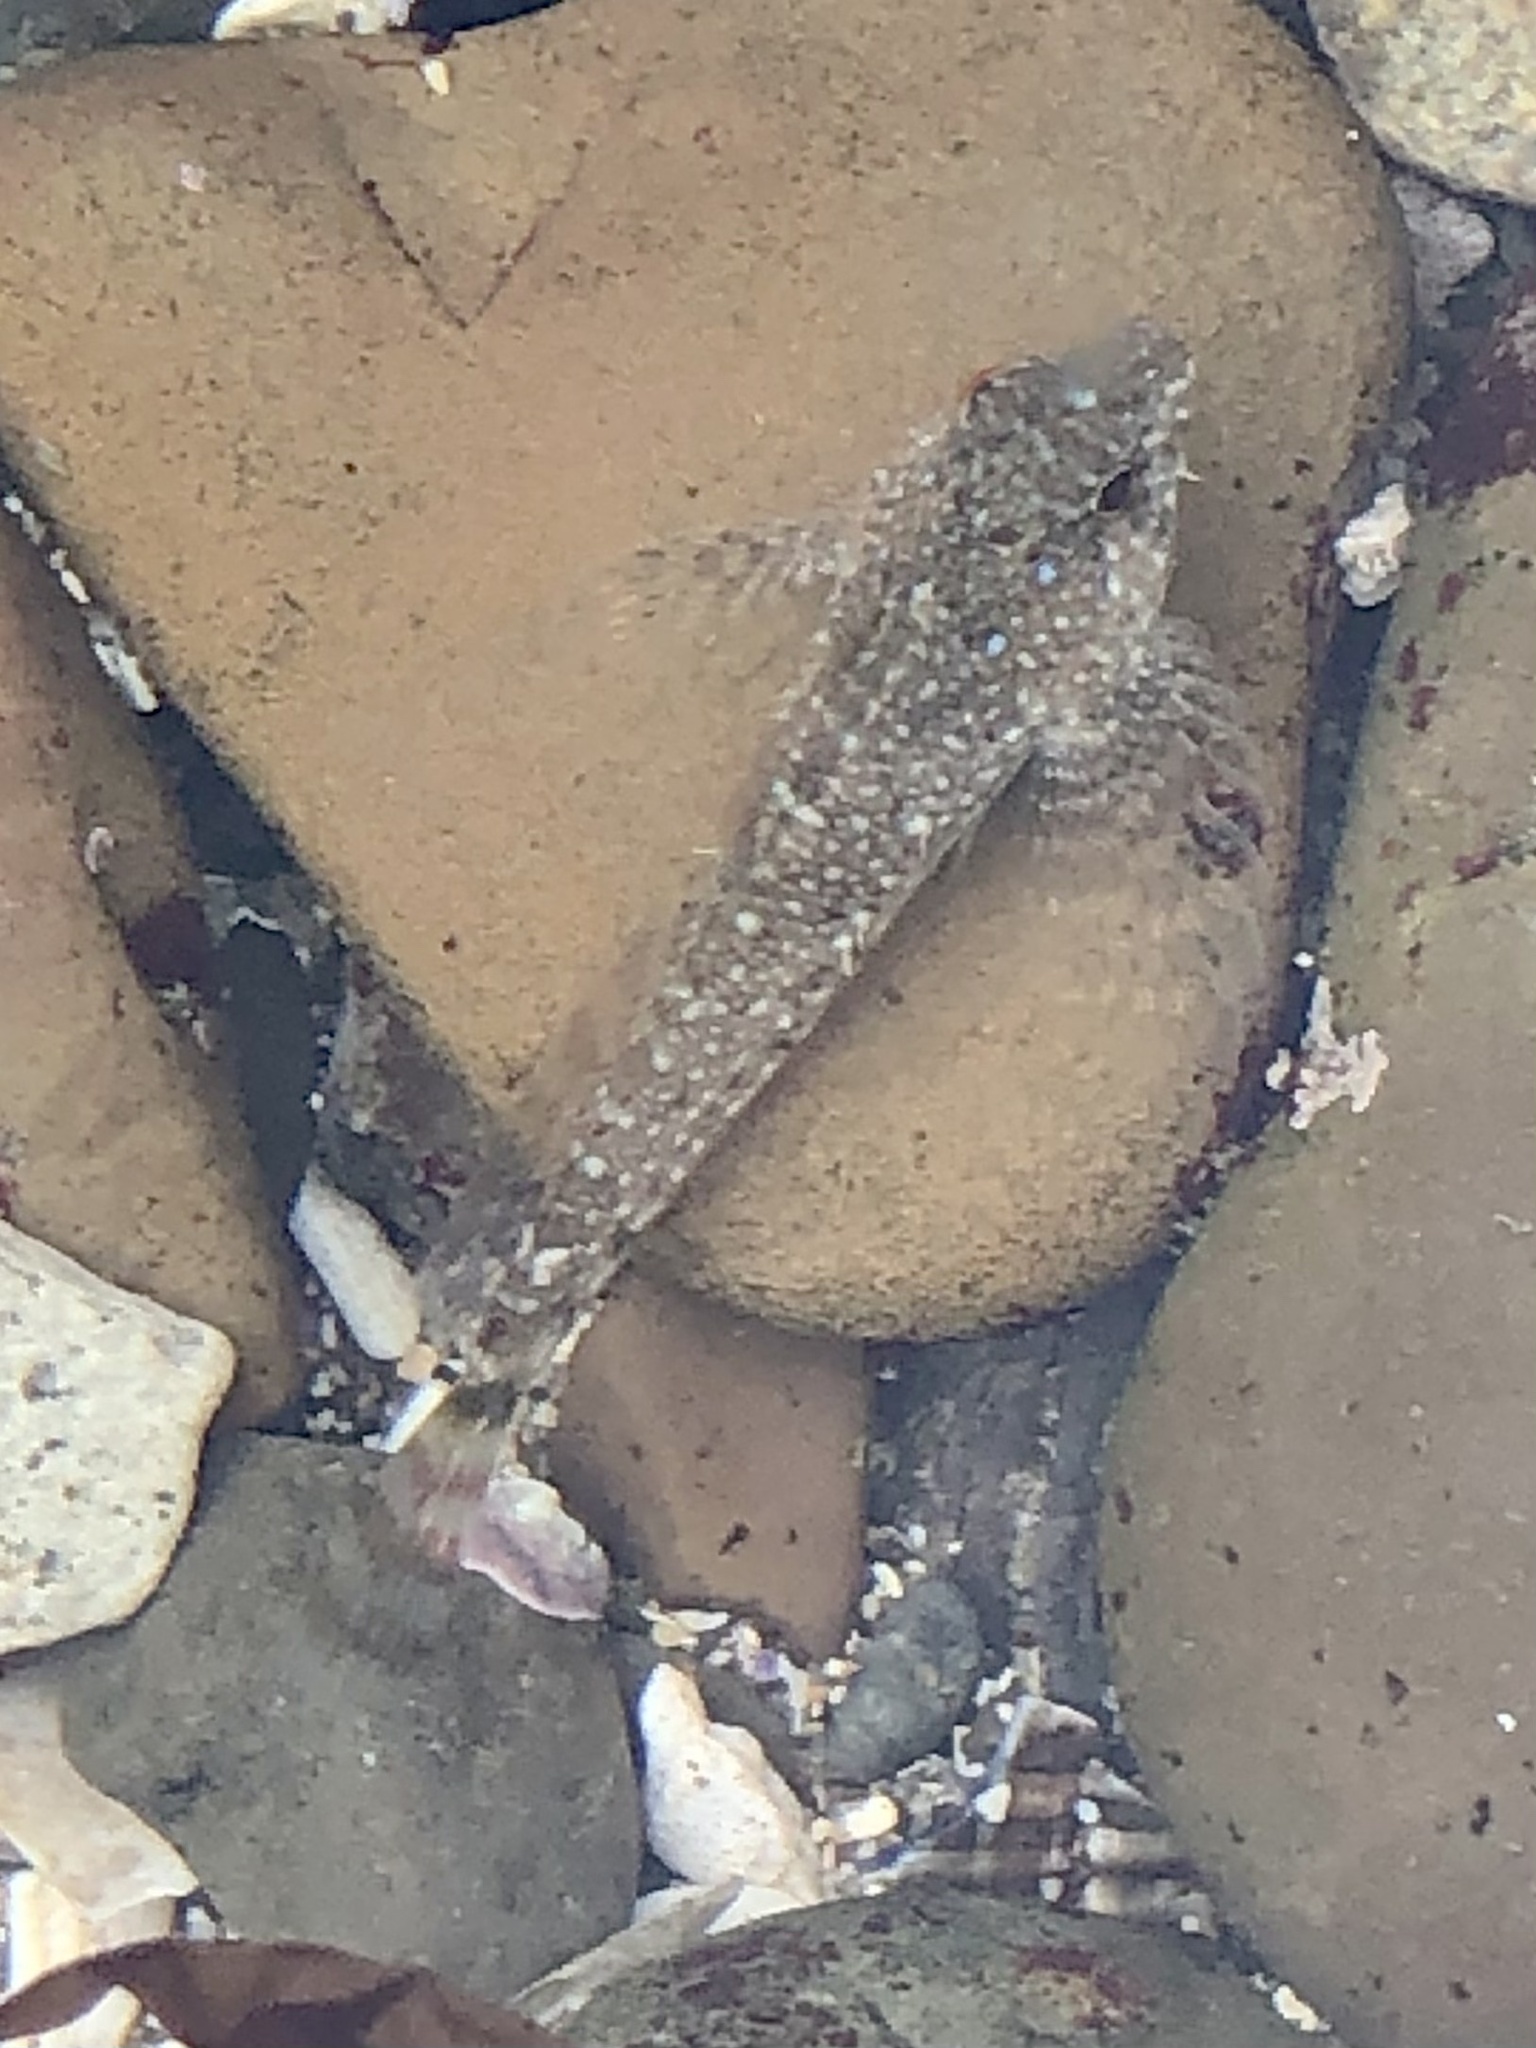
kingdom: Animalia
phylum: Chordata
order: Scorpaeniformes
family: Cottidae
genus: Clinocottus
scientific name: Clinocottus analis
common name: Woolly sculpin
